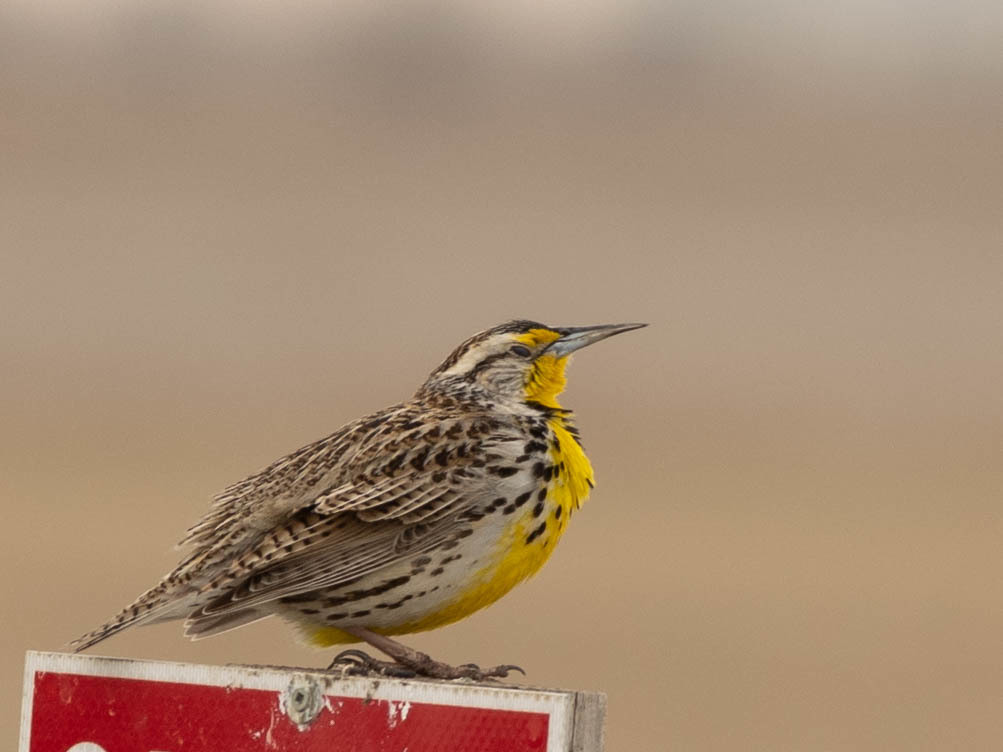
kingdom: Animalia
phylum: Chordata
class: Aves
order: Passeriformes
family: Icteridae
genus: Sturnella
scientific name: Sturnella neglecta
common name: Western meadowlark
